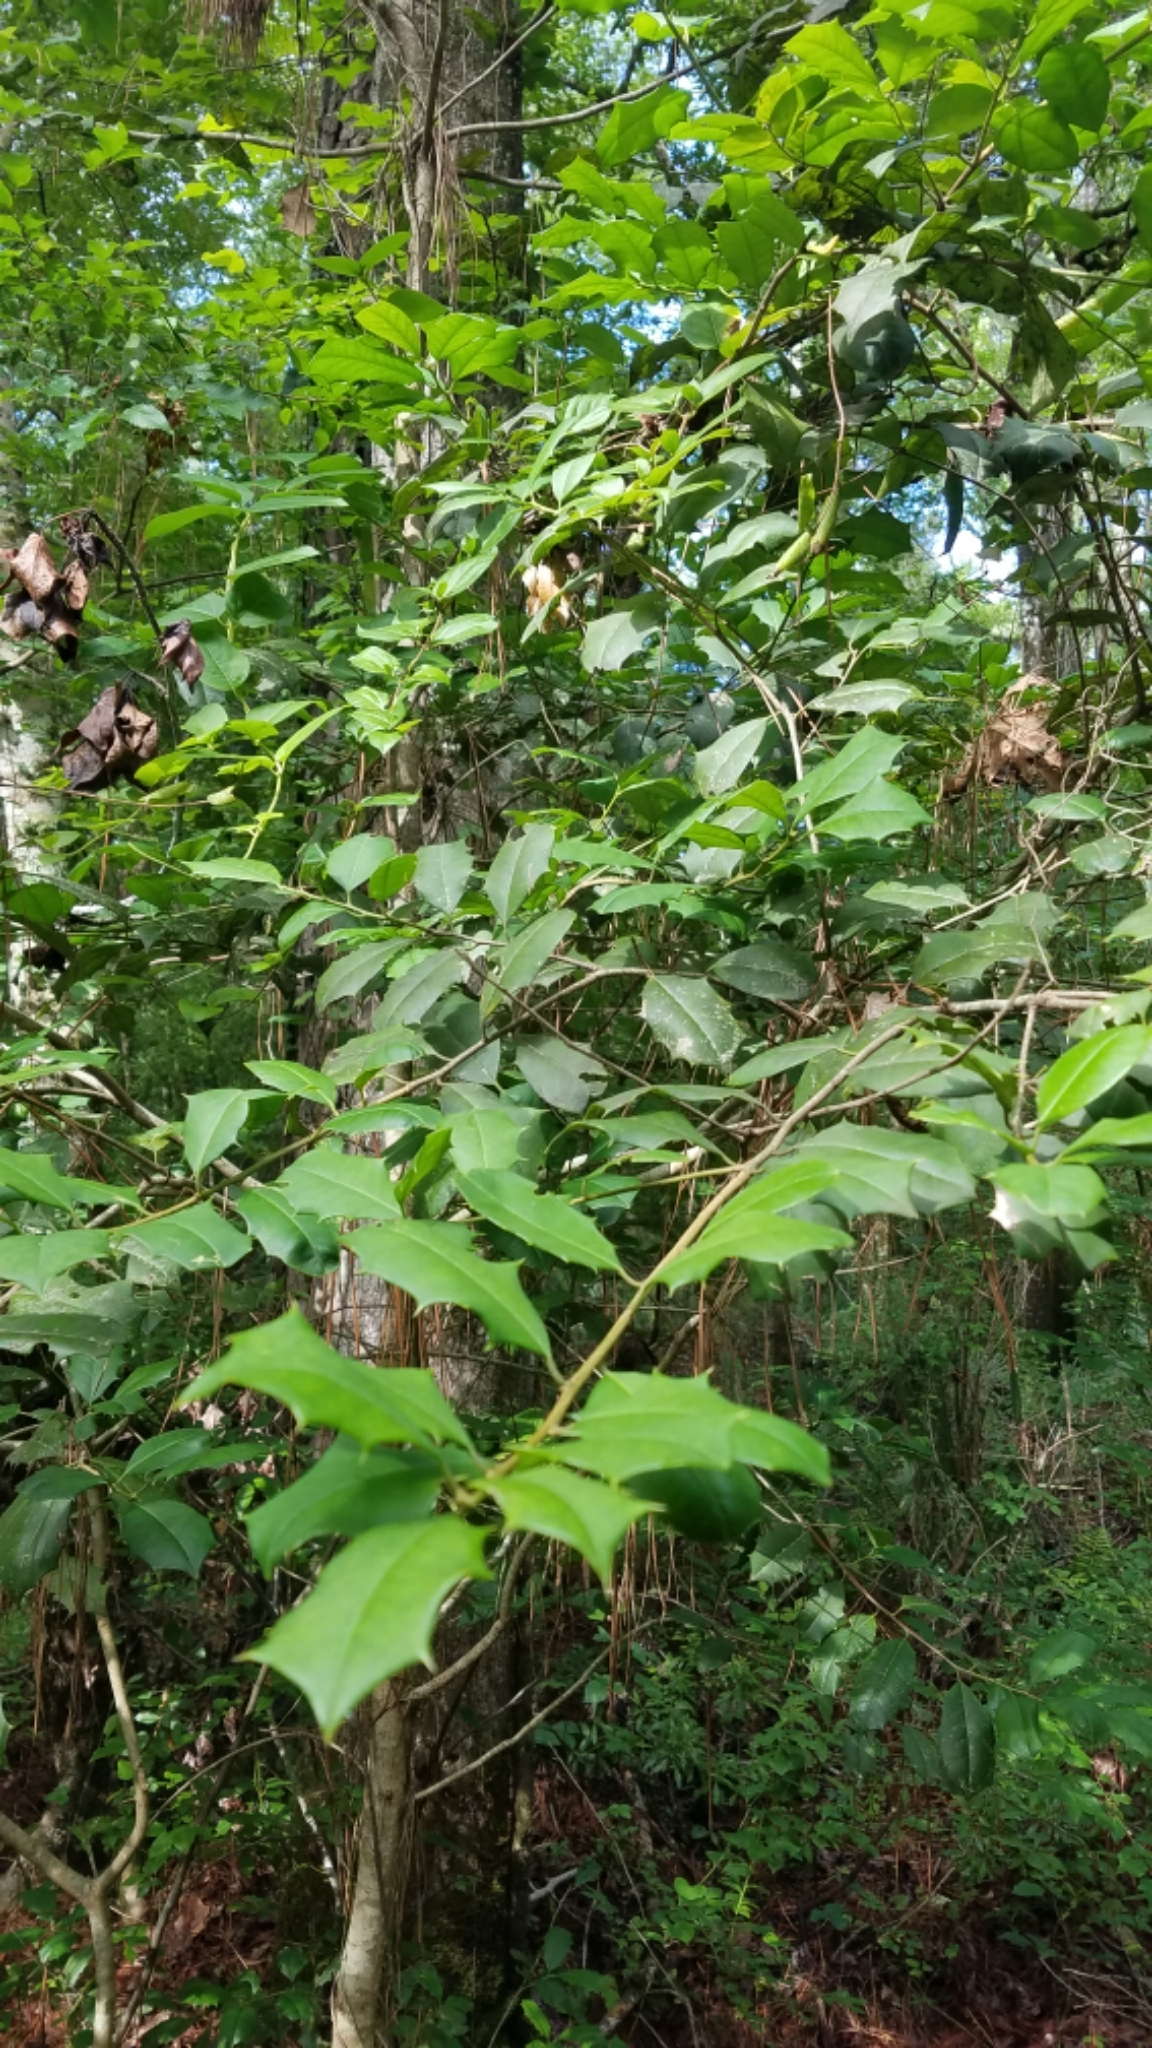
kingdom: Plantae
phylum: Tracheophyta
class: Magnoliopsida
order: Aquifoliales
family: Aquifoliaceae
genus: Ilex
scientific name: Ilex opaca
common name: American holly
